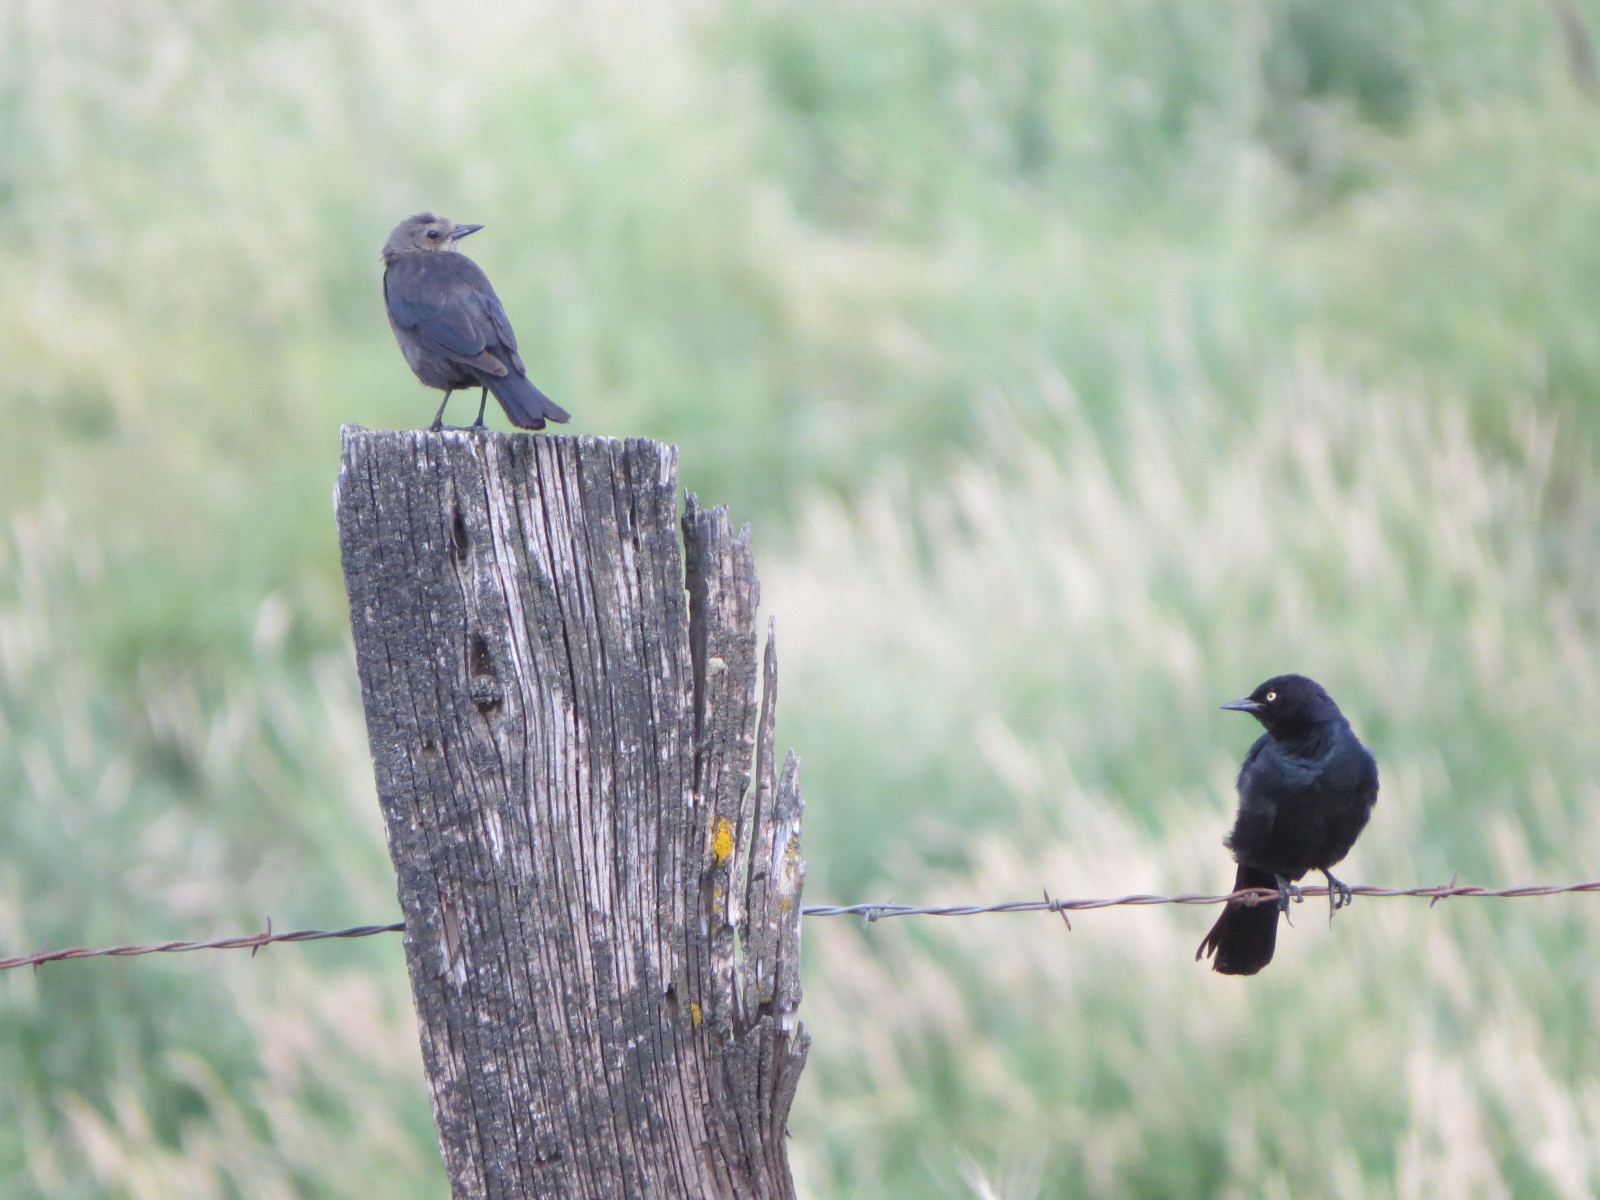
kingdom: Animalia
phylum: Chordata
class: Aves
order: Passeriformes
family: Icteridae
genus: Euphagus
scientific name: Euphagus cyanocephalus
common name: Brewer's blackbird
